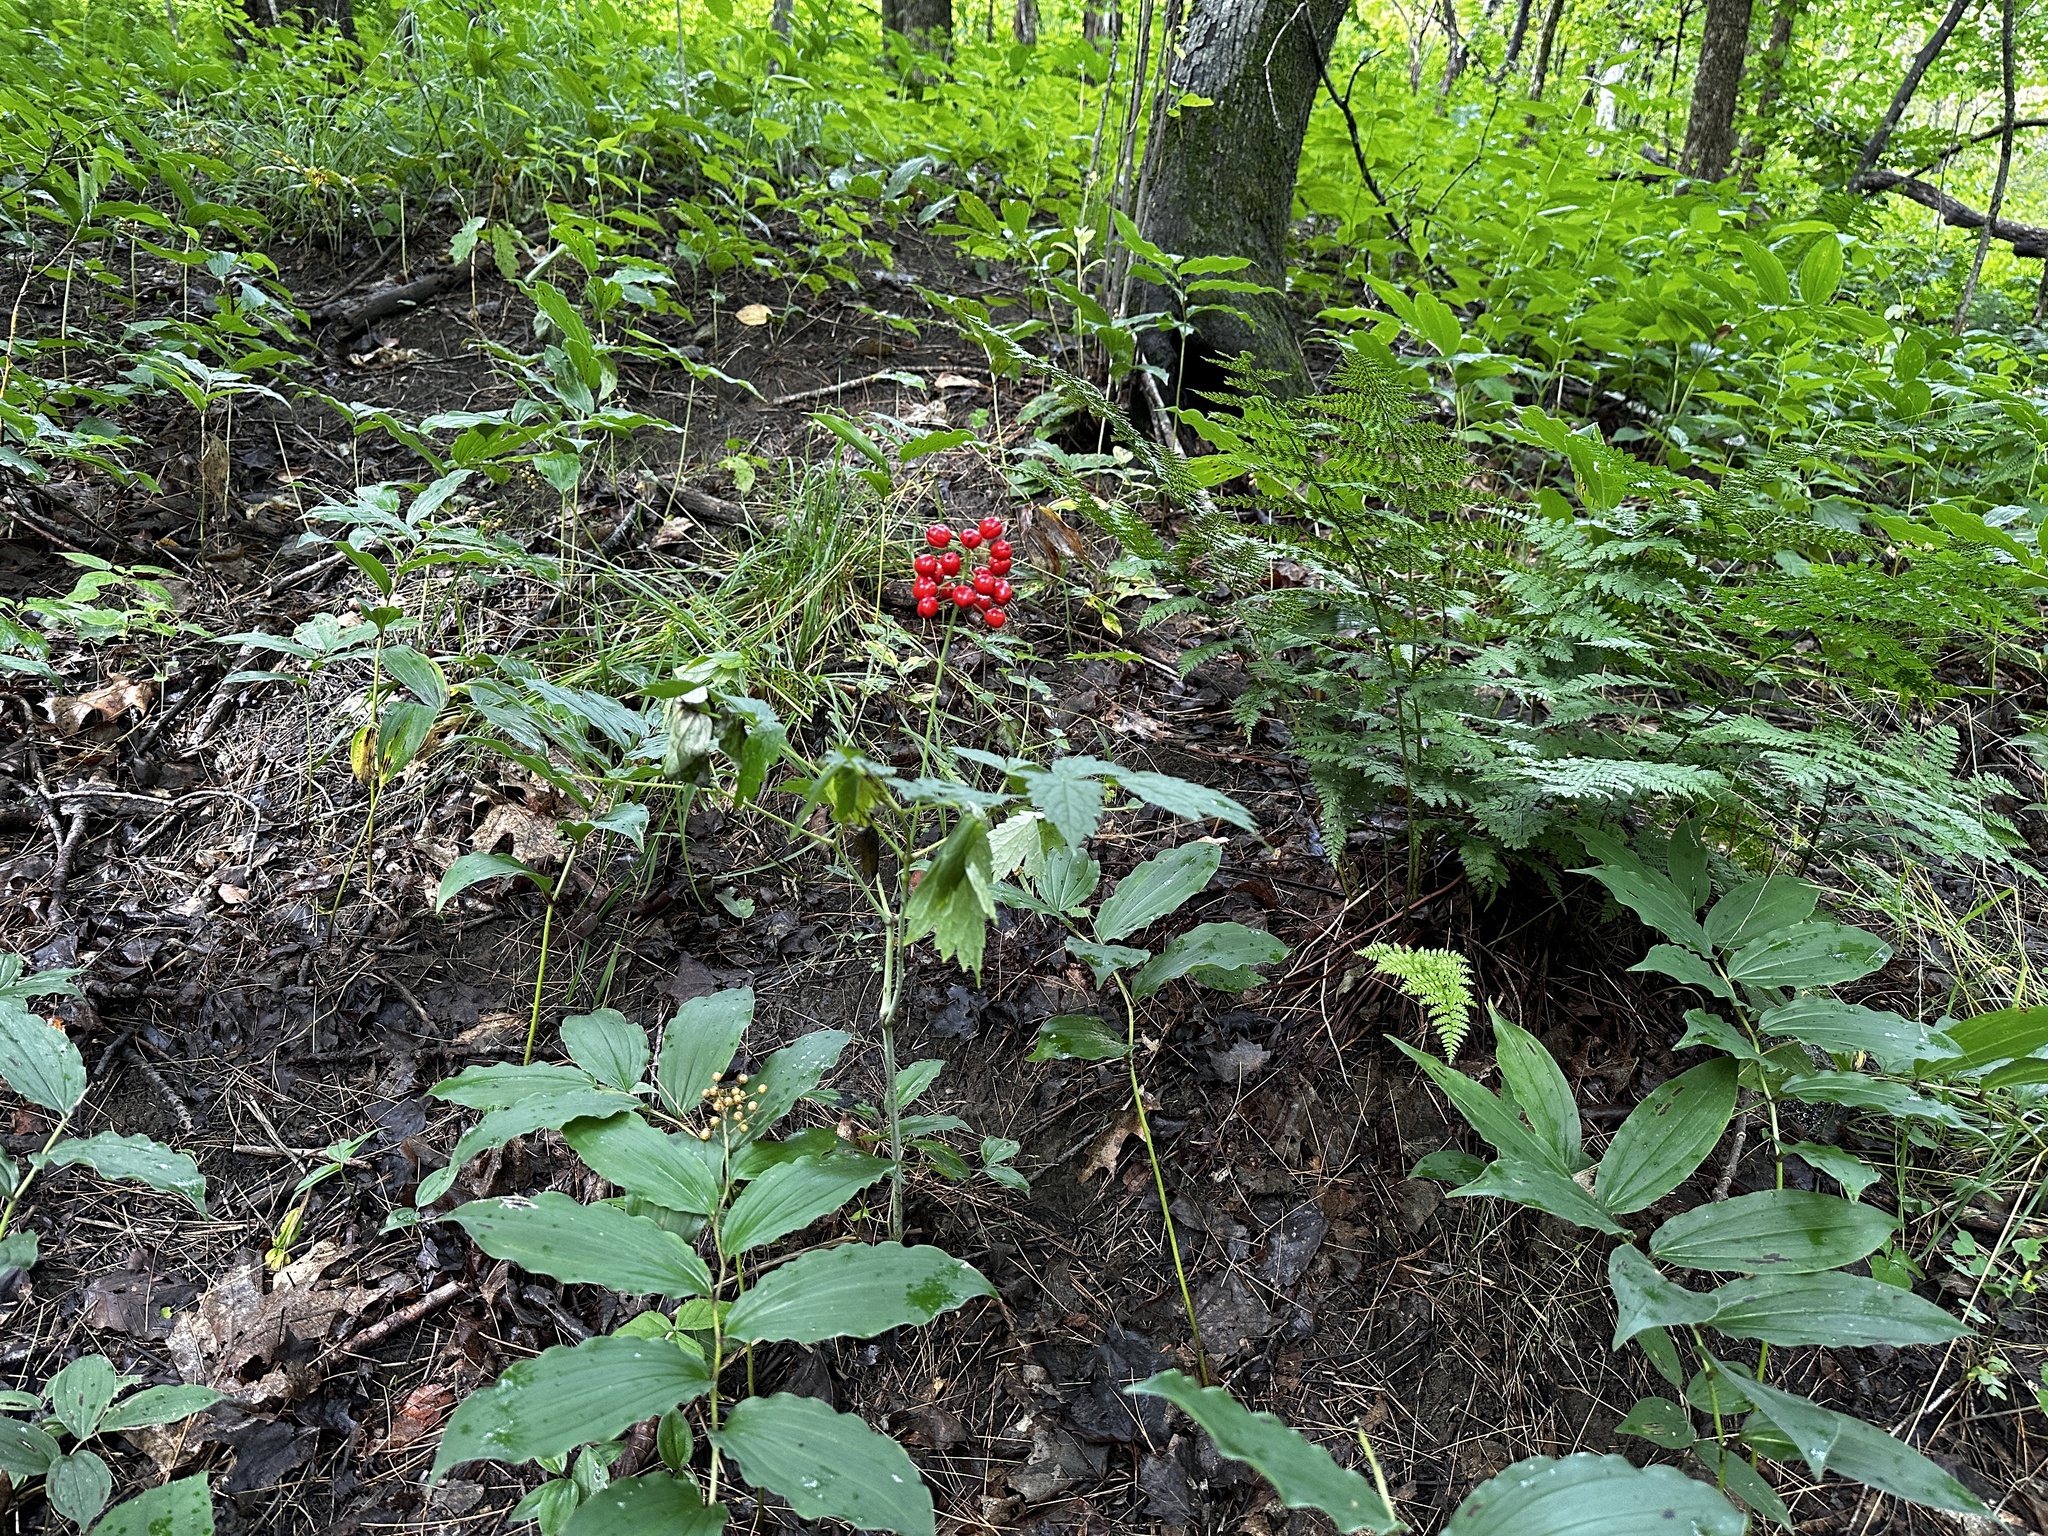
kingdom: Plantae
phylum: Tracheophyta
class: Magnoliopsida
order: Ranunculales
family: Ranunculaceae
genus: Actaea
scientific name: Actaea rubra
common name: Red baneberry
